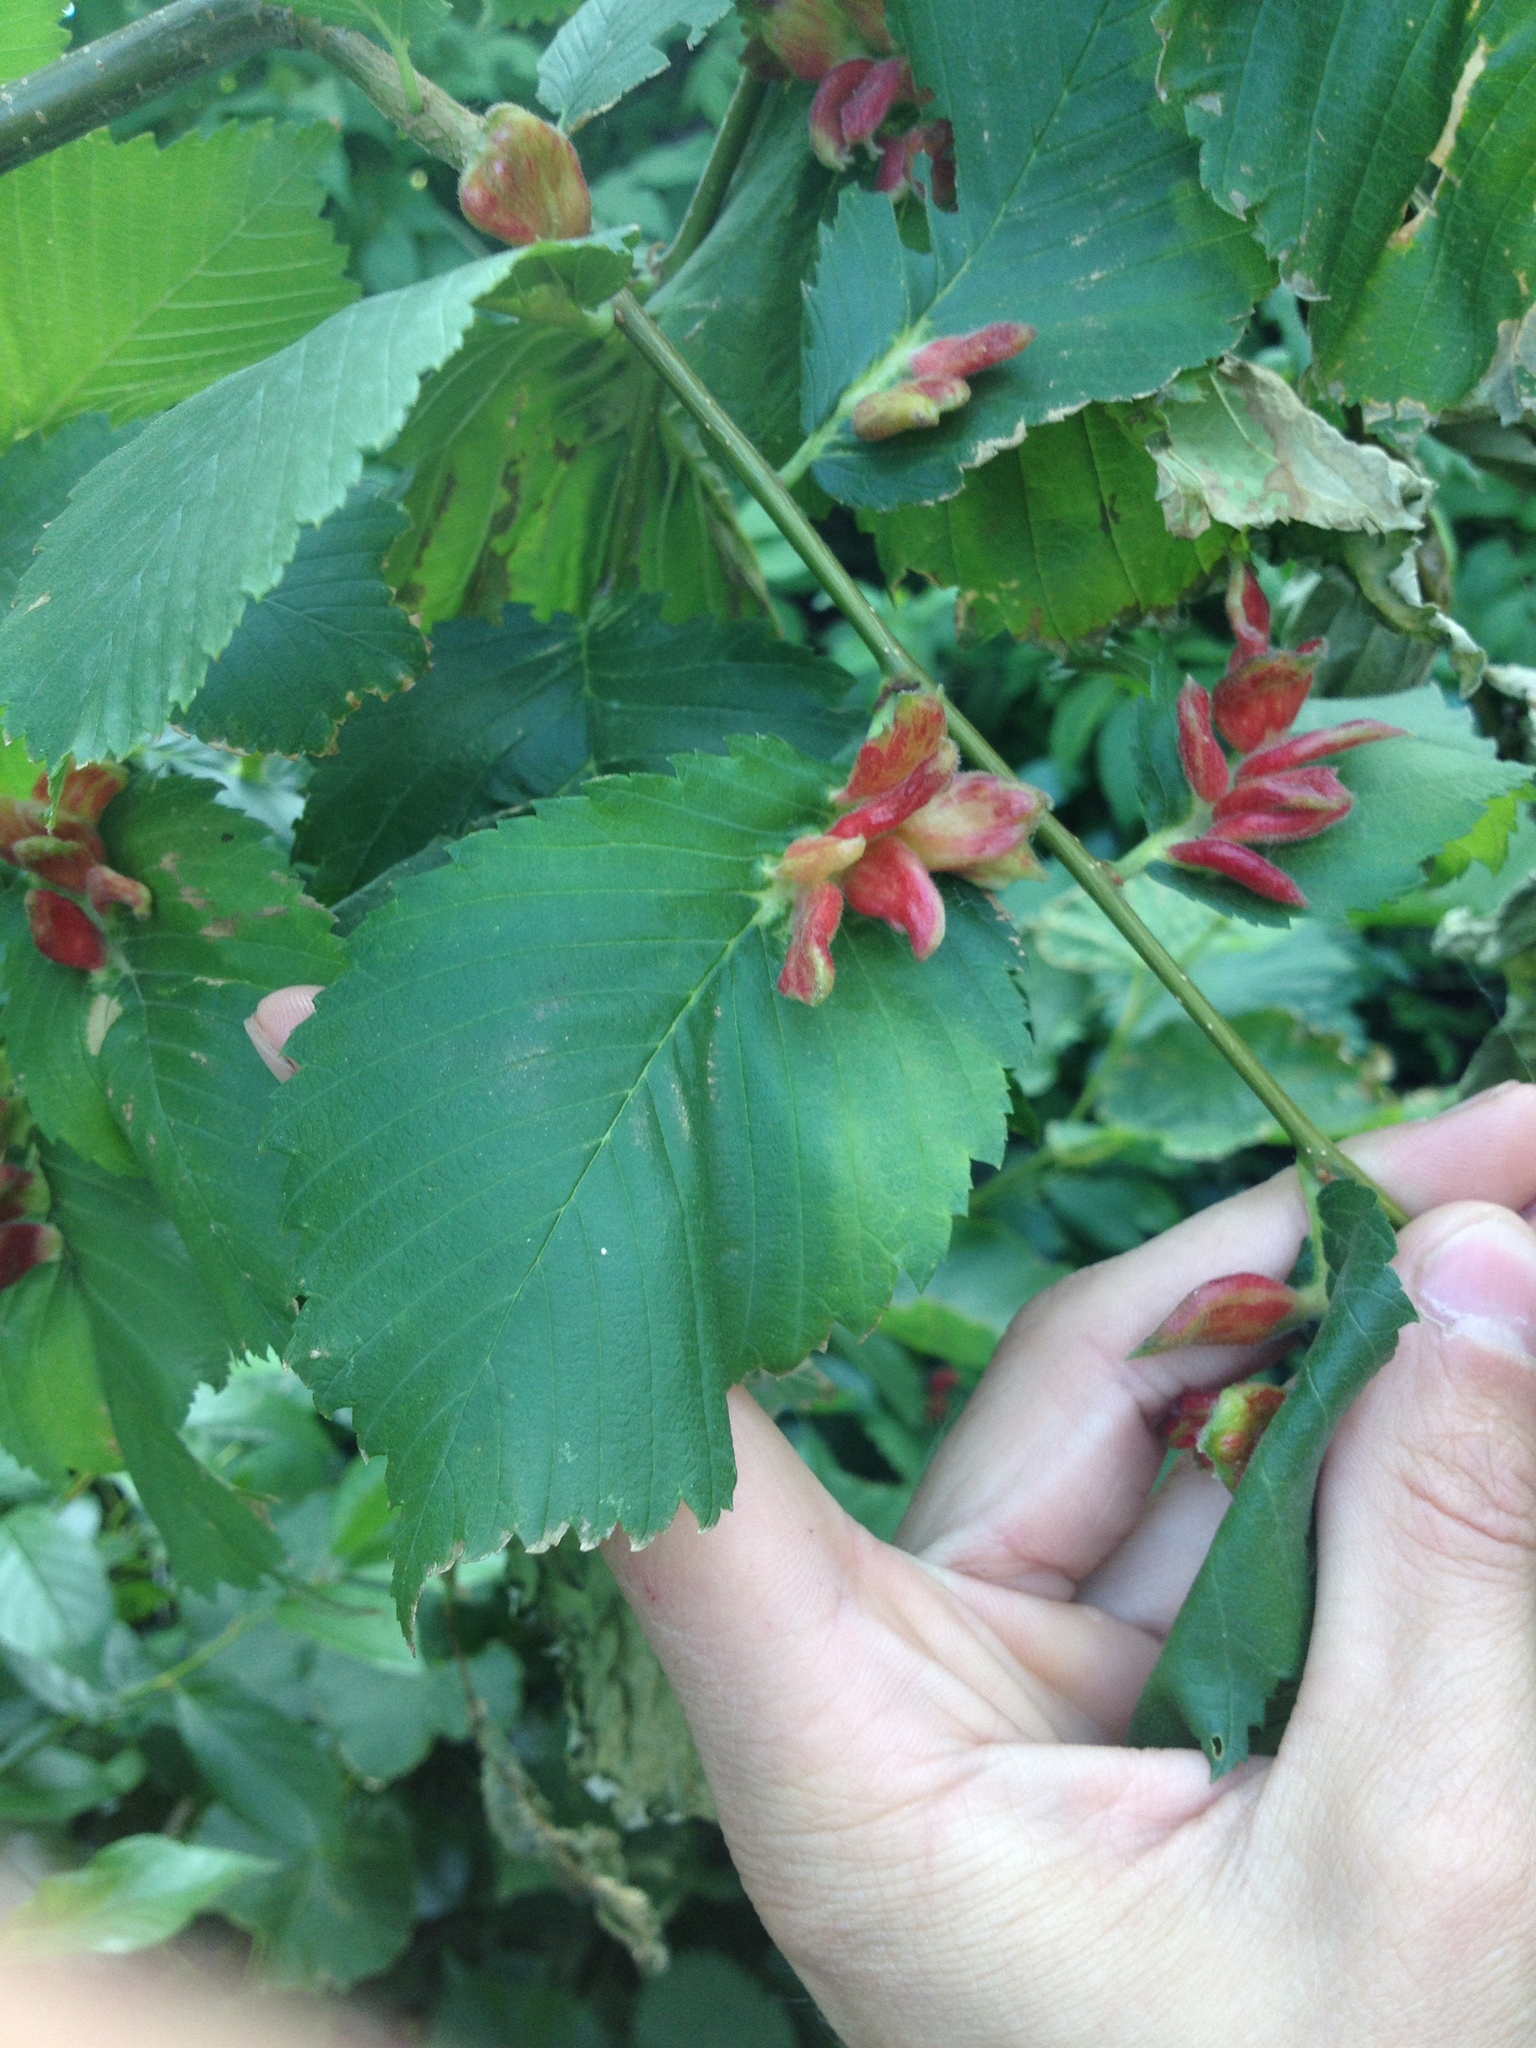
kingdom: Animalia
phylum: Arthropoda
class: Insecta
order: Hemiptera
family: Aphididae
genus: Tetraneura
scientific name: Tetraneura ulmi
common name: Aphid
